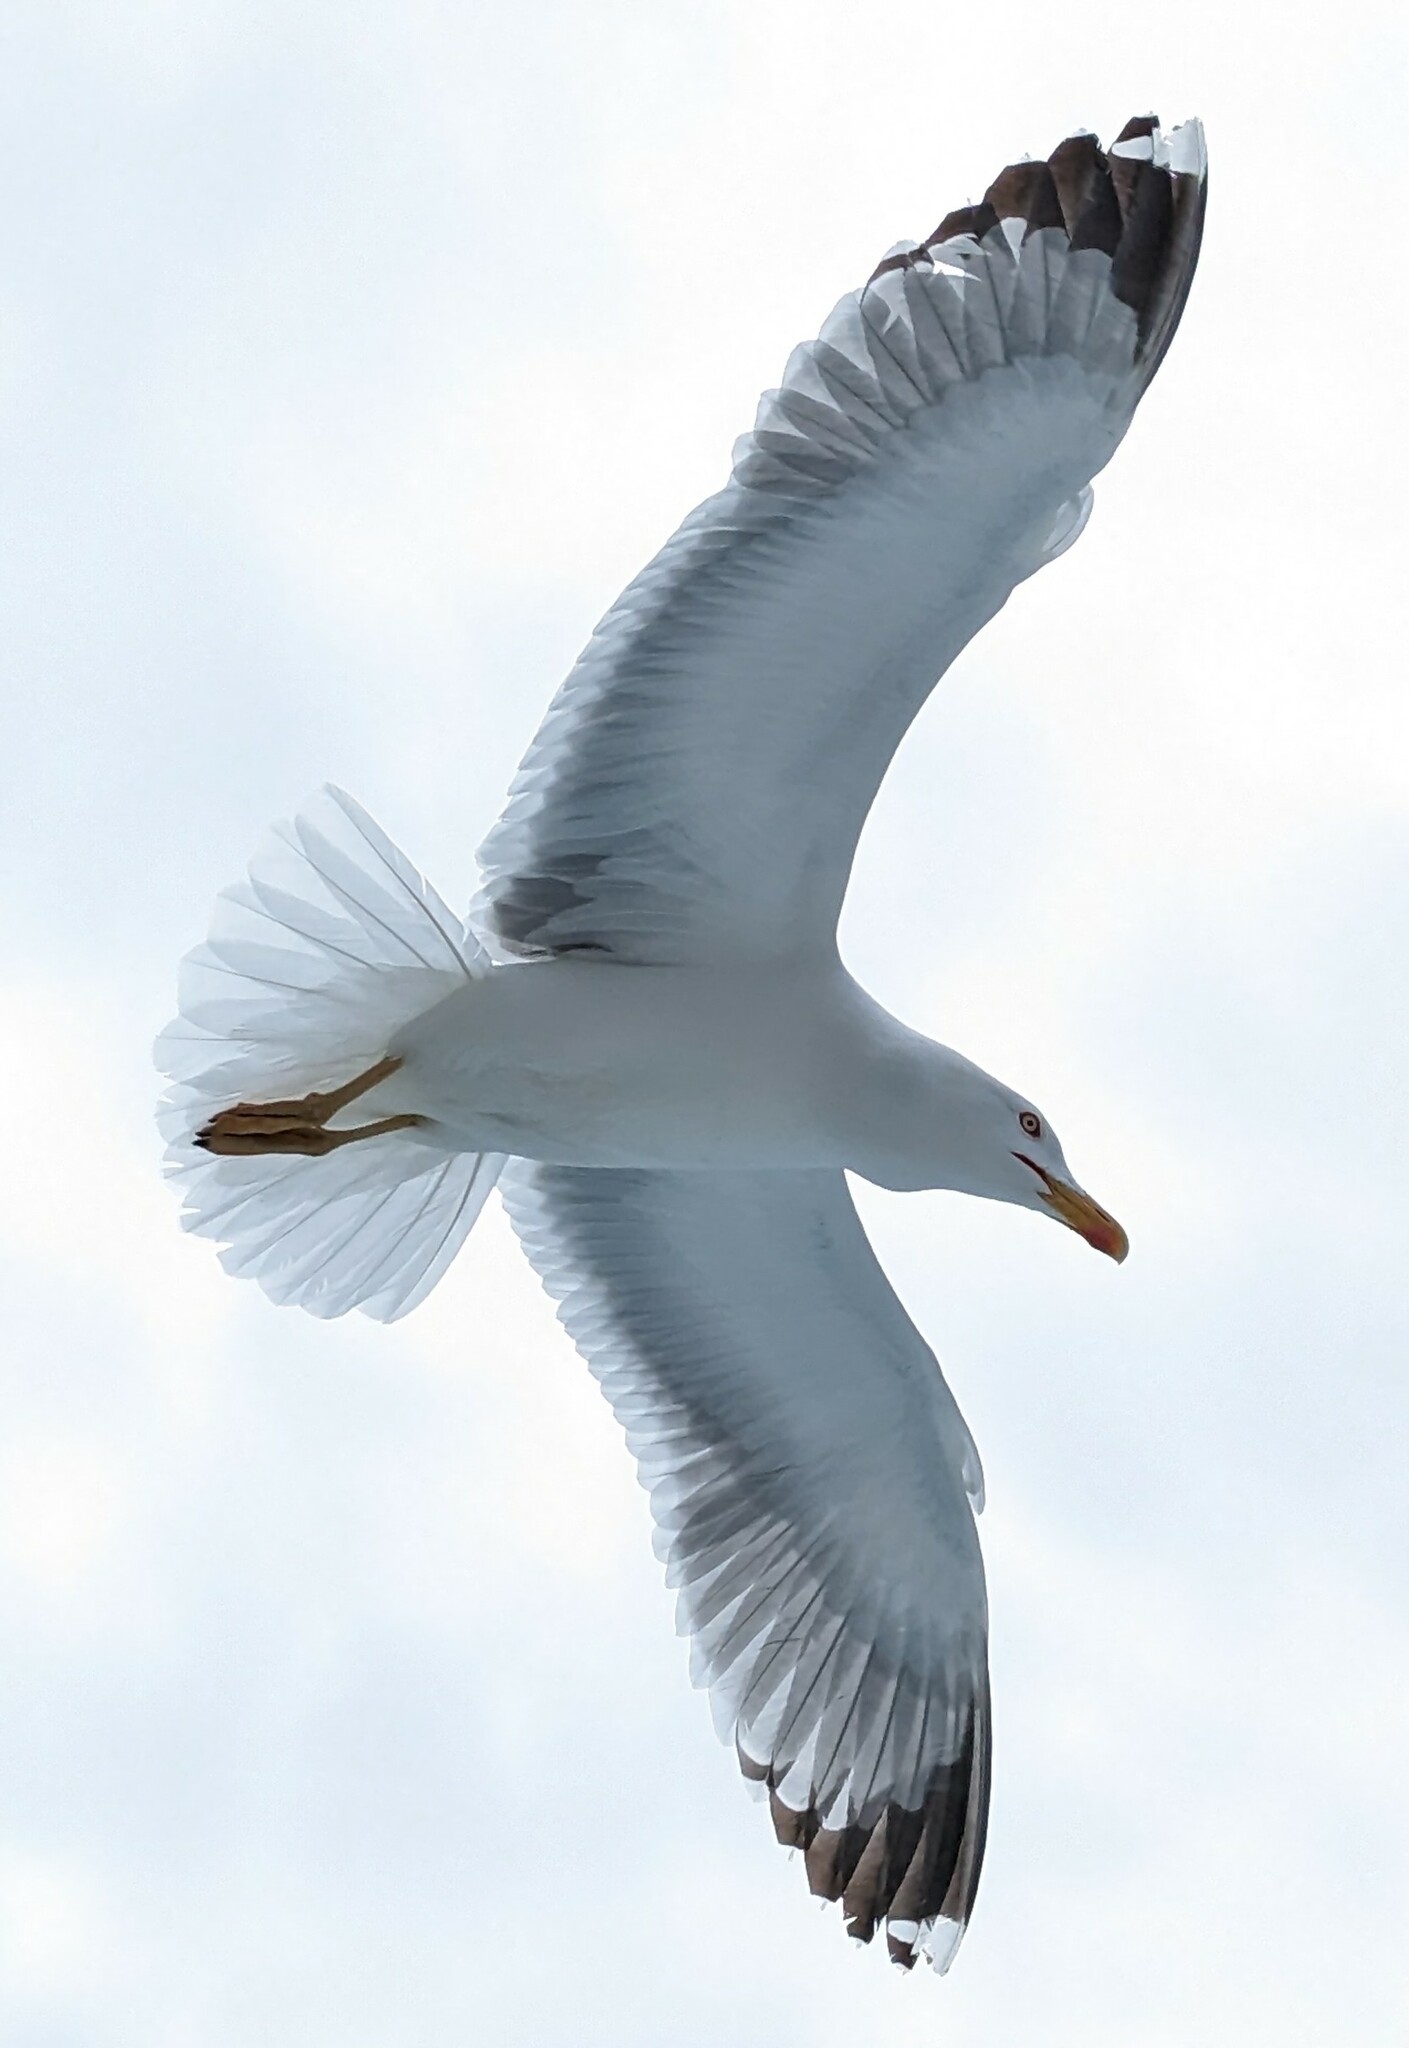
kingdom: Animalia
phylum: Chordata
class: Aves
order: Charadriiformes
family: Laridae
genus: Larus
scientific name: Larus michahellis
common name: Yellow-legged gull
